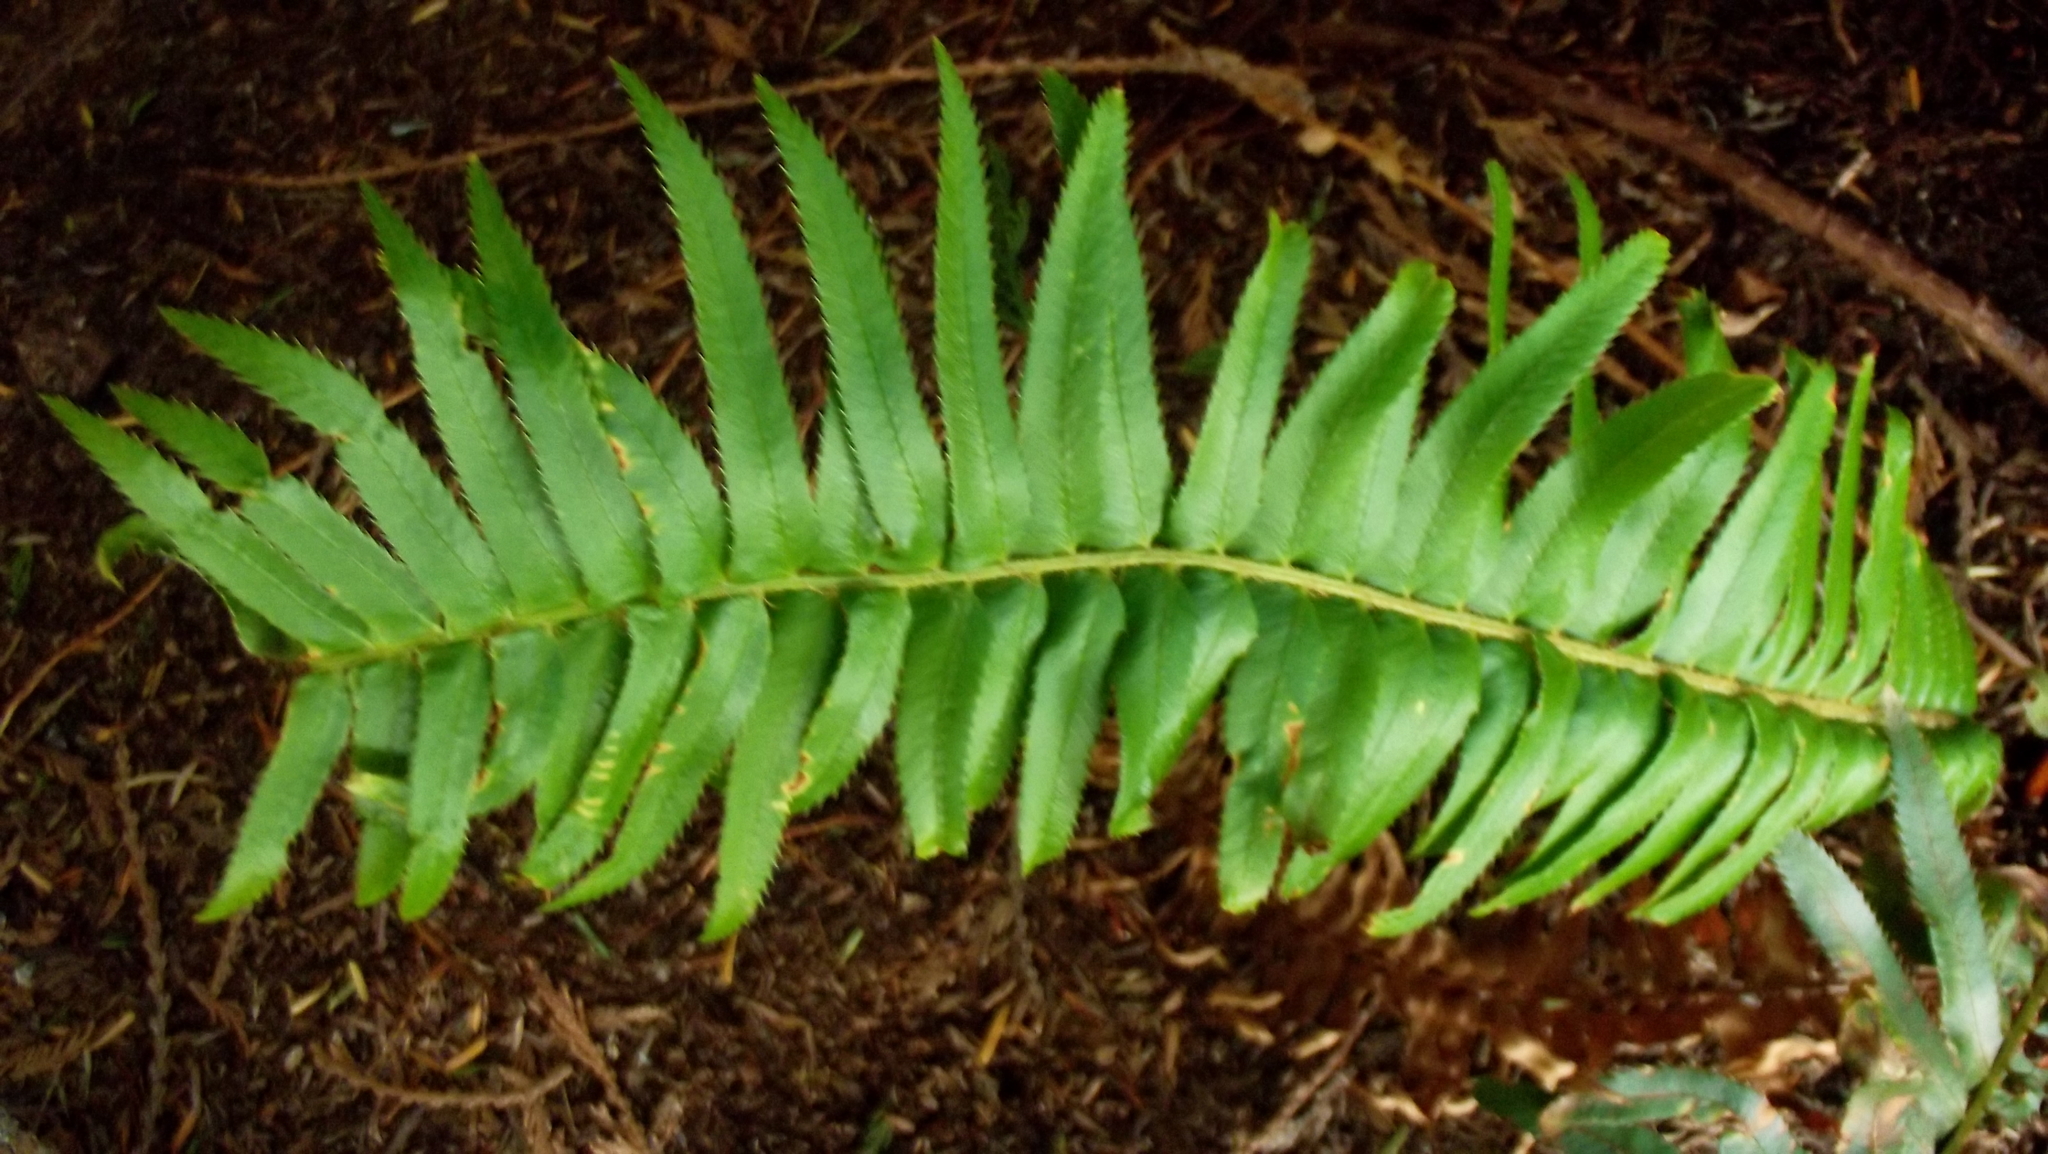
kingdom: Plantae
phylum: Tracheophyta
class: Polypodiopsida
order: Polypodiales
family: Dryopteridaceae
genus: Polystichum
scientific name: Polystichum munitum
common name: Western sword-fern
